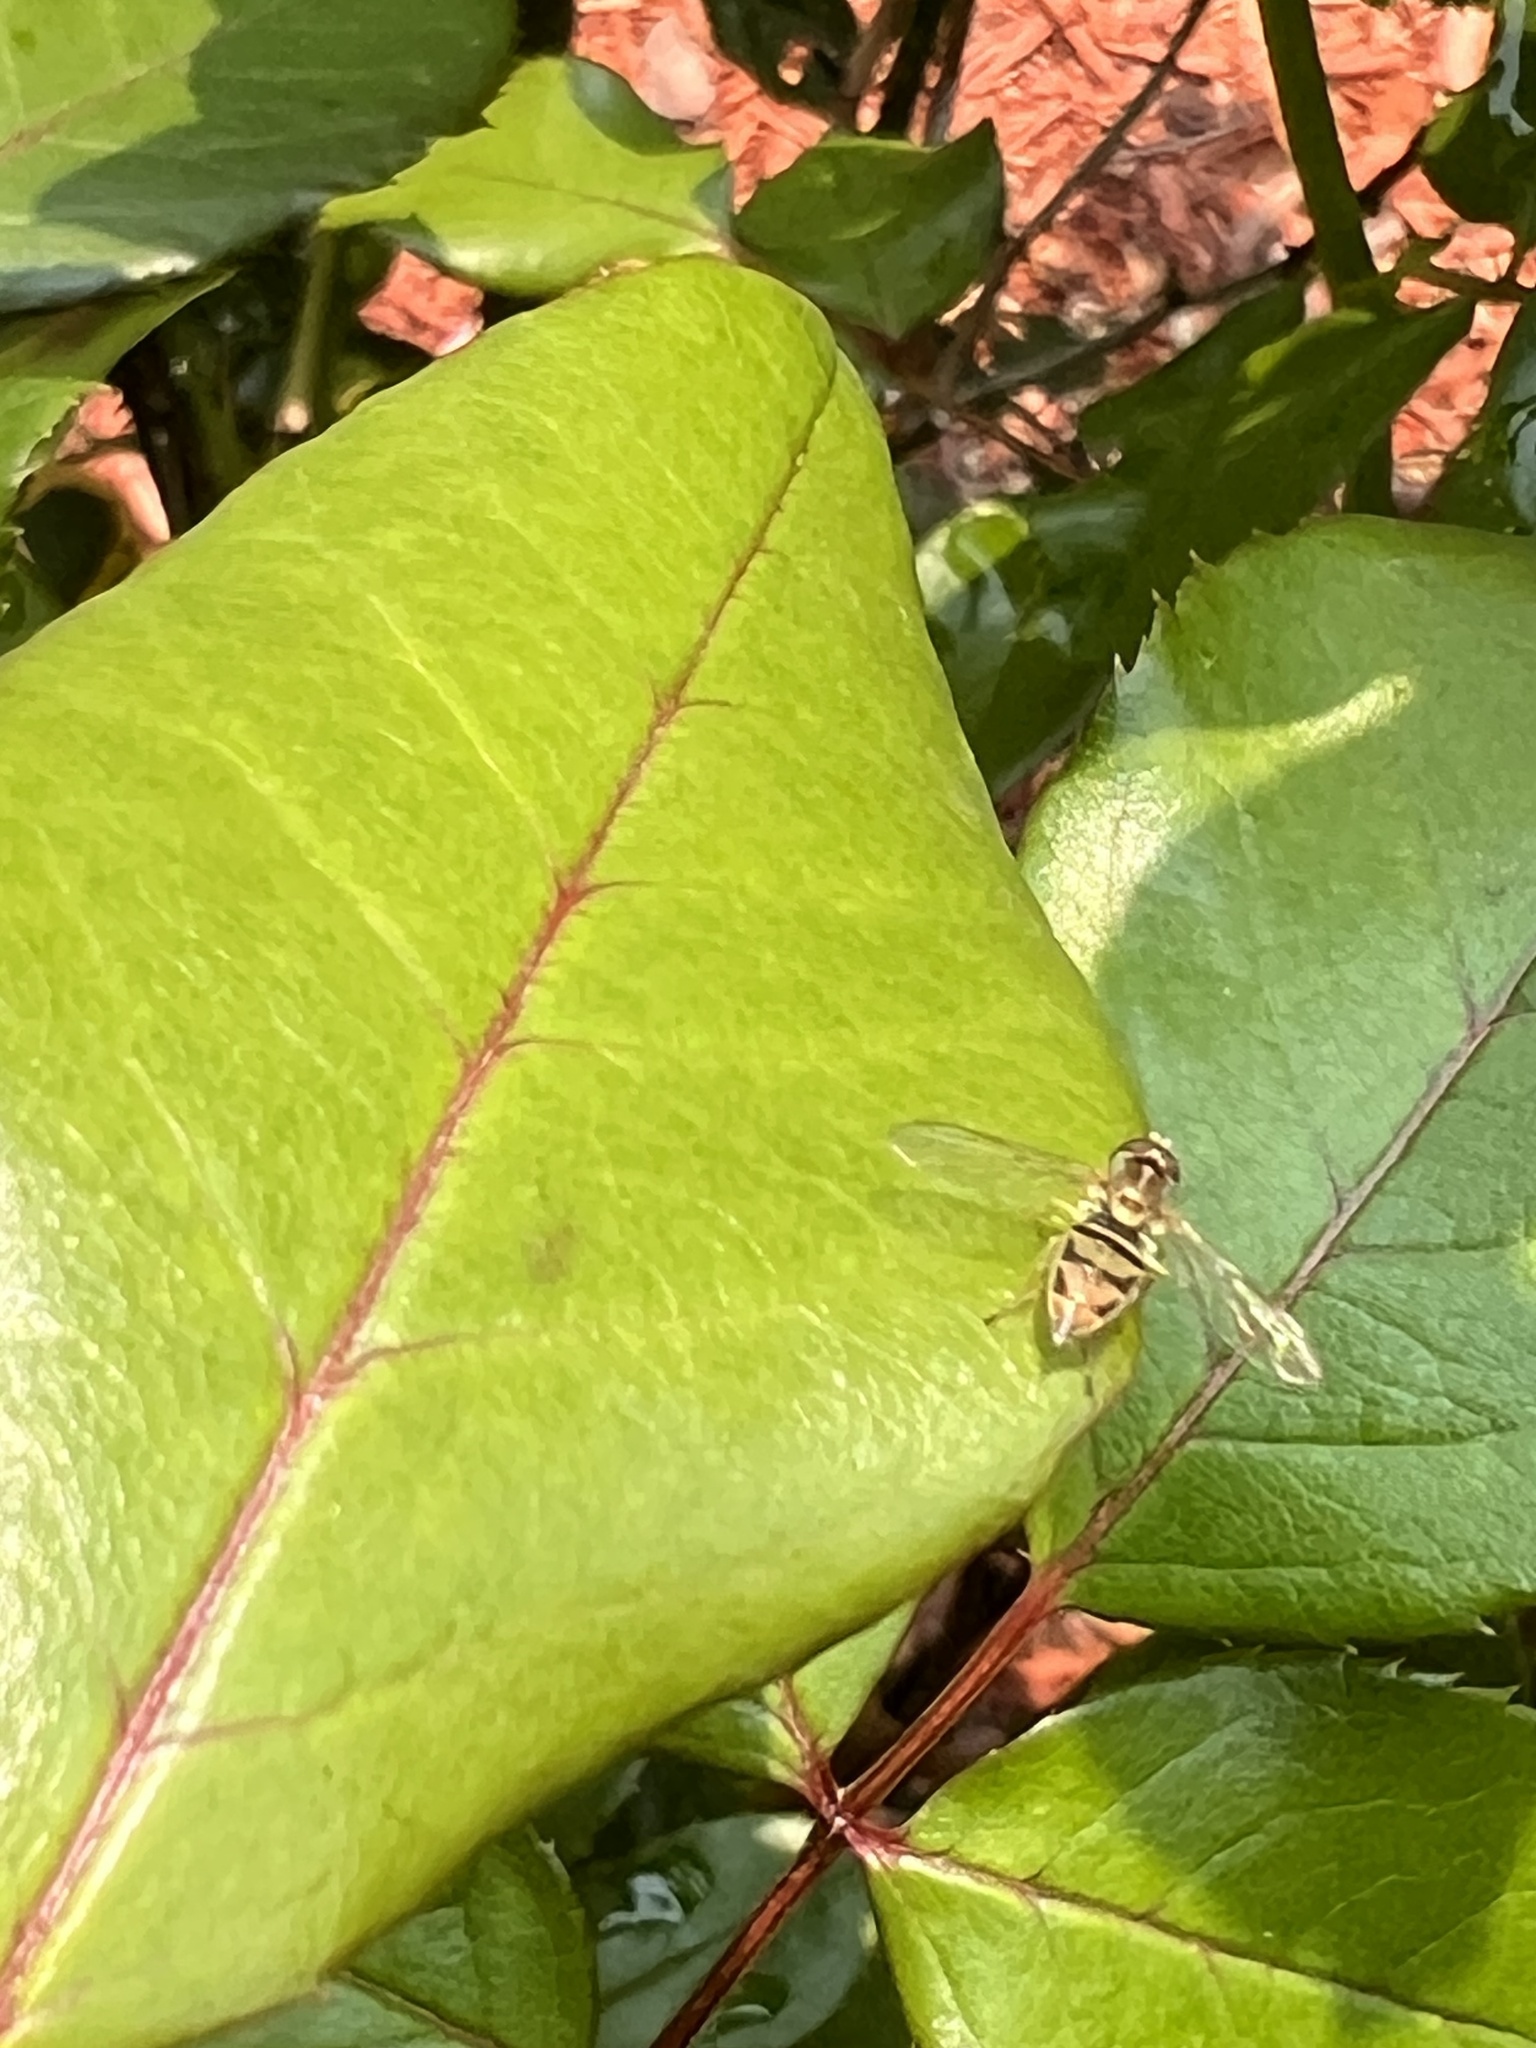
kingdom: Animalia
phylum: Arthropoda
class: Insecta
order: Diptera
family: Syrphidae
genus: Toxomerus
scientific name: Toxomerus marginatus
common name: Syrphid fly
